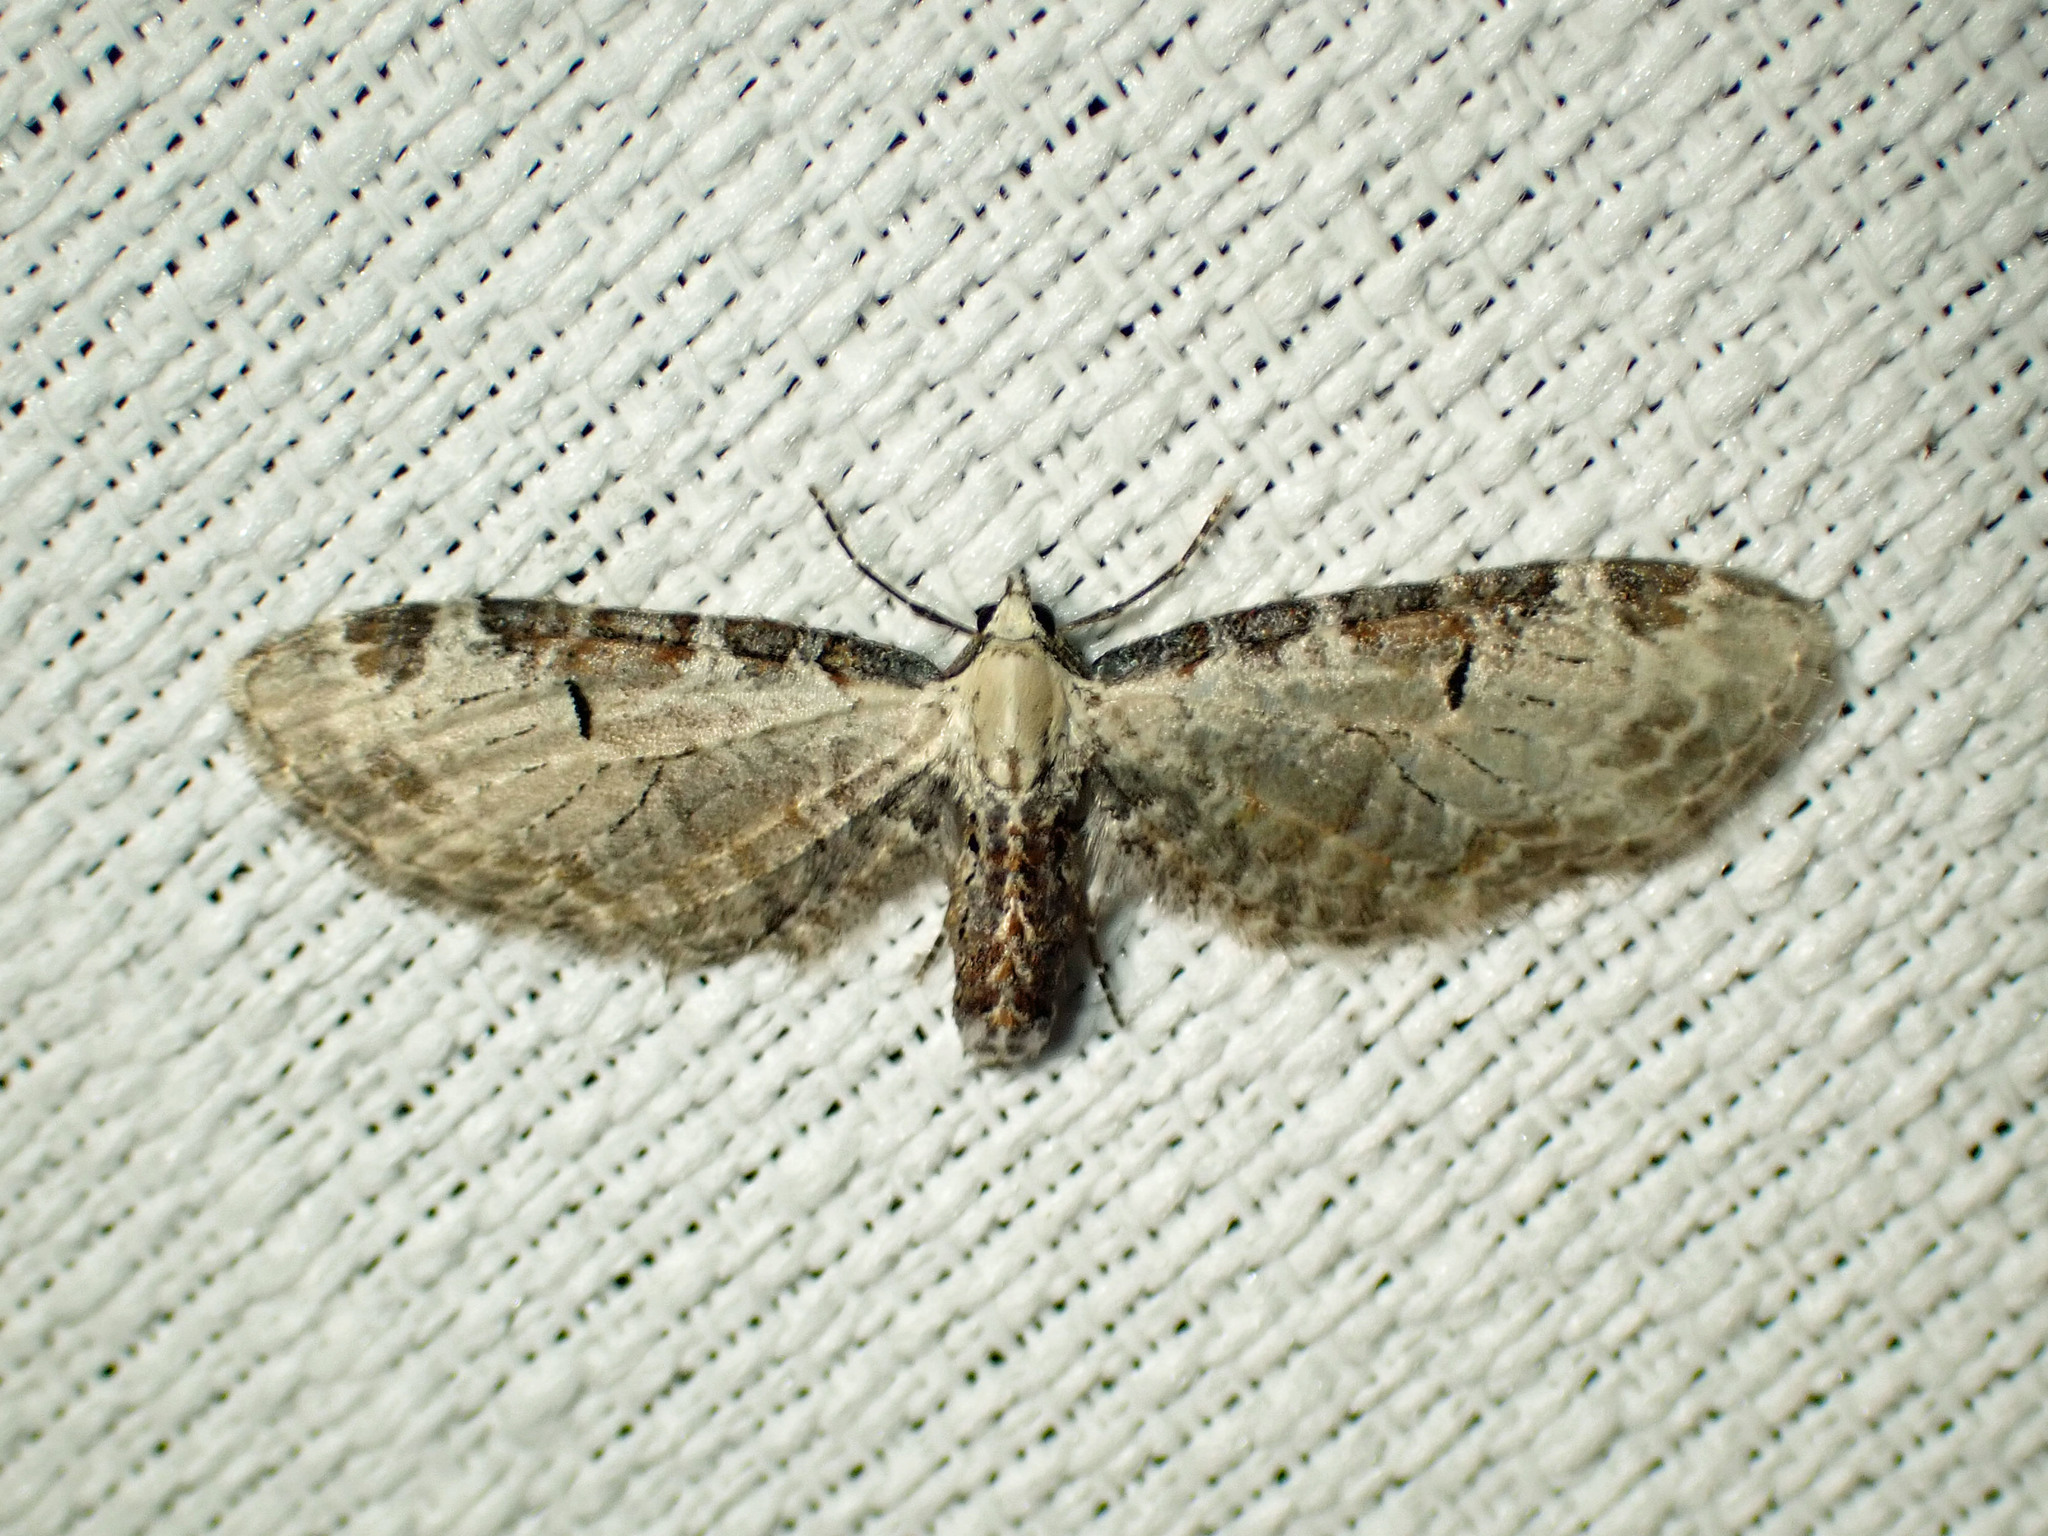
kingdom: Animalia
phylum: Arthropoda
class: Insecta
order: Lepidoptera
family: Geometridae
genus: Eupithecia
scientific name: Eupithecia ravocostaliata
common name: Great varigated pug
